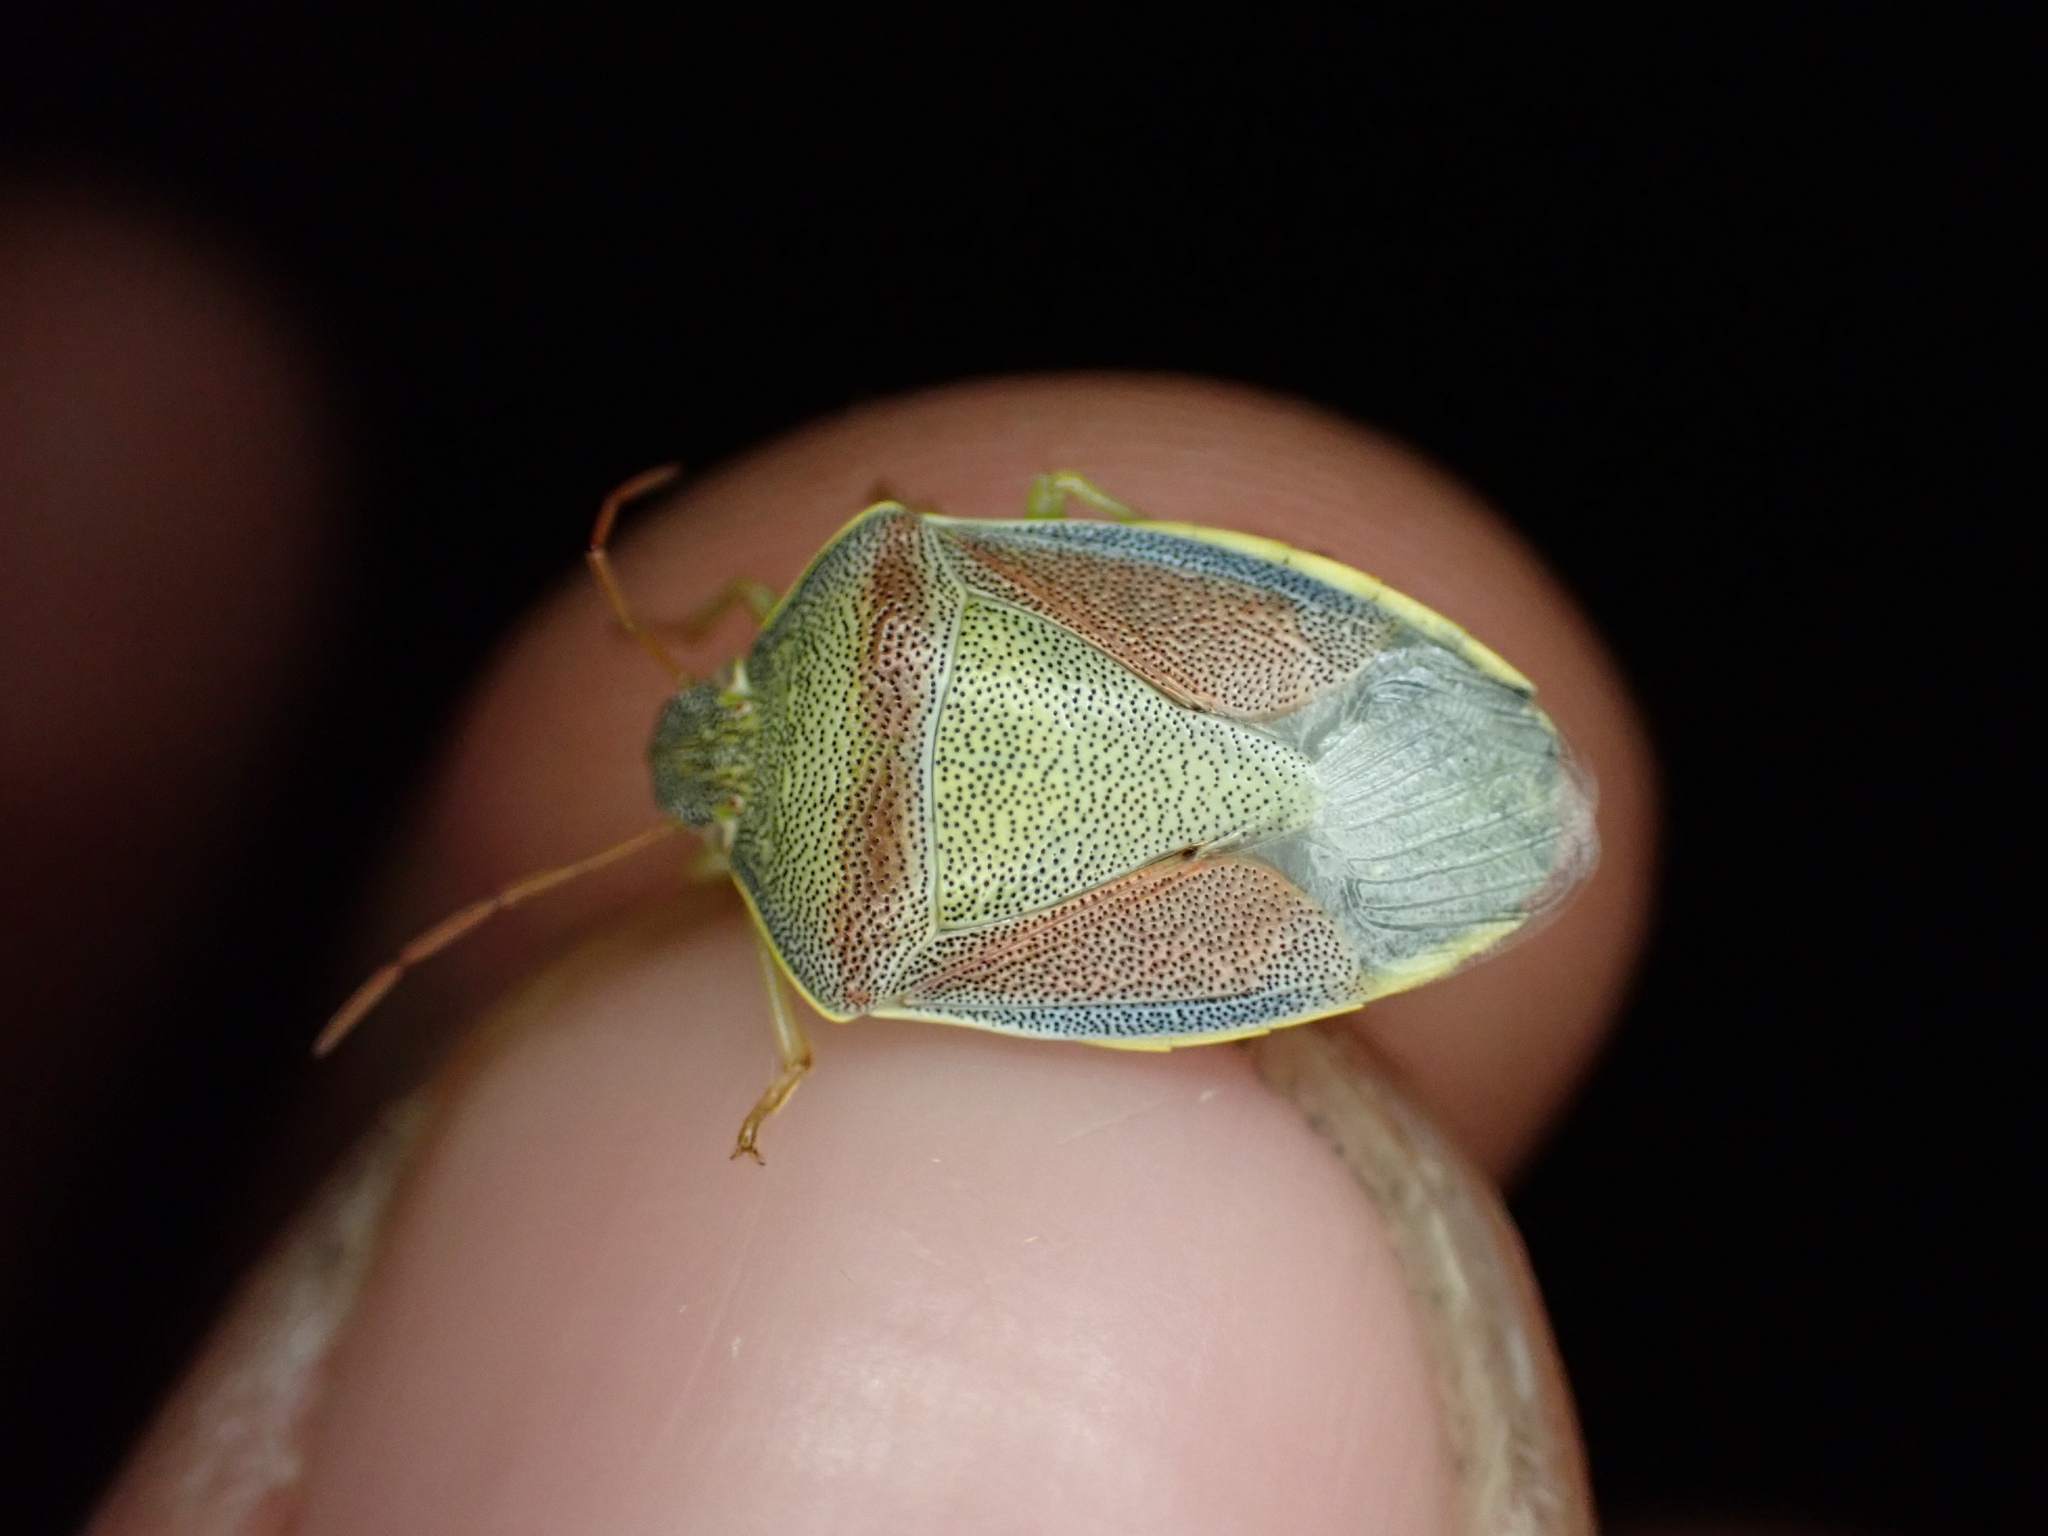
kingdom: Animalia
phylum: Arthropoda
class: Insecta
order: Hemiptera
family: Pentatomidae
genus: Piezodorus
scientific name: Piezodorus lituratus
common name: Stink bug
